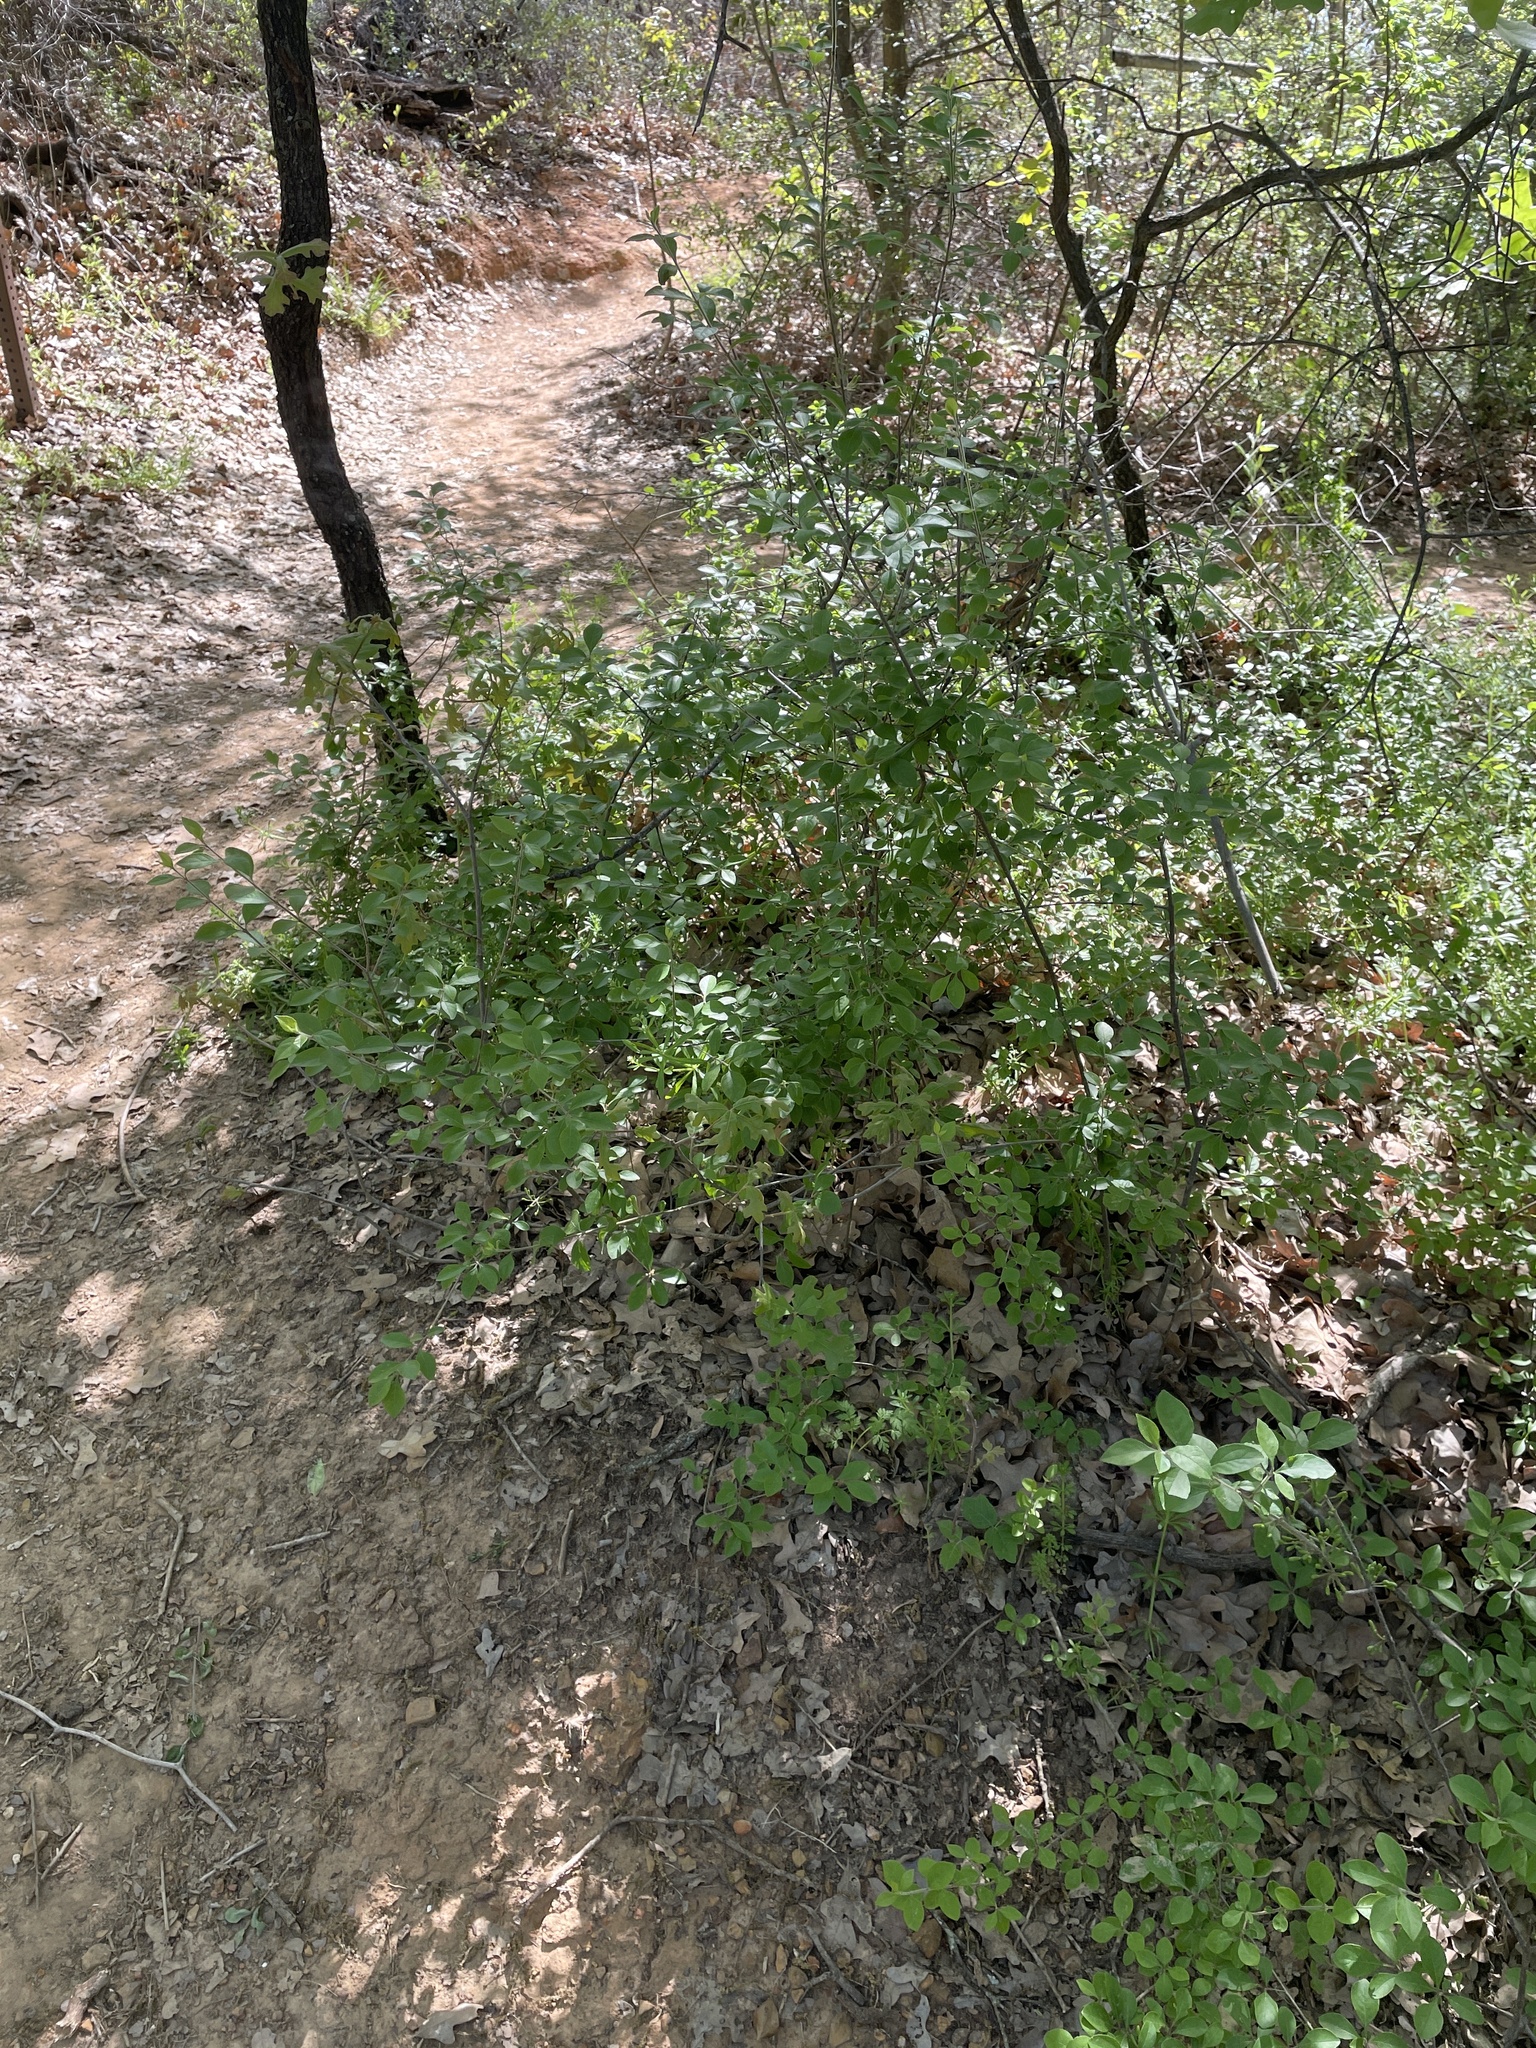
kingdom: Plantae
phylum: Tracheophyta
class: Magnoliopsida
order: Lamiales
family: Oleaceae
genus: Forestiera
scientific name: Forestiera pubescens
